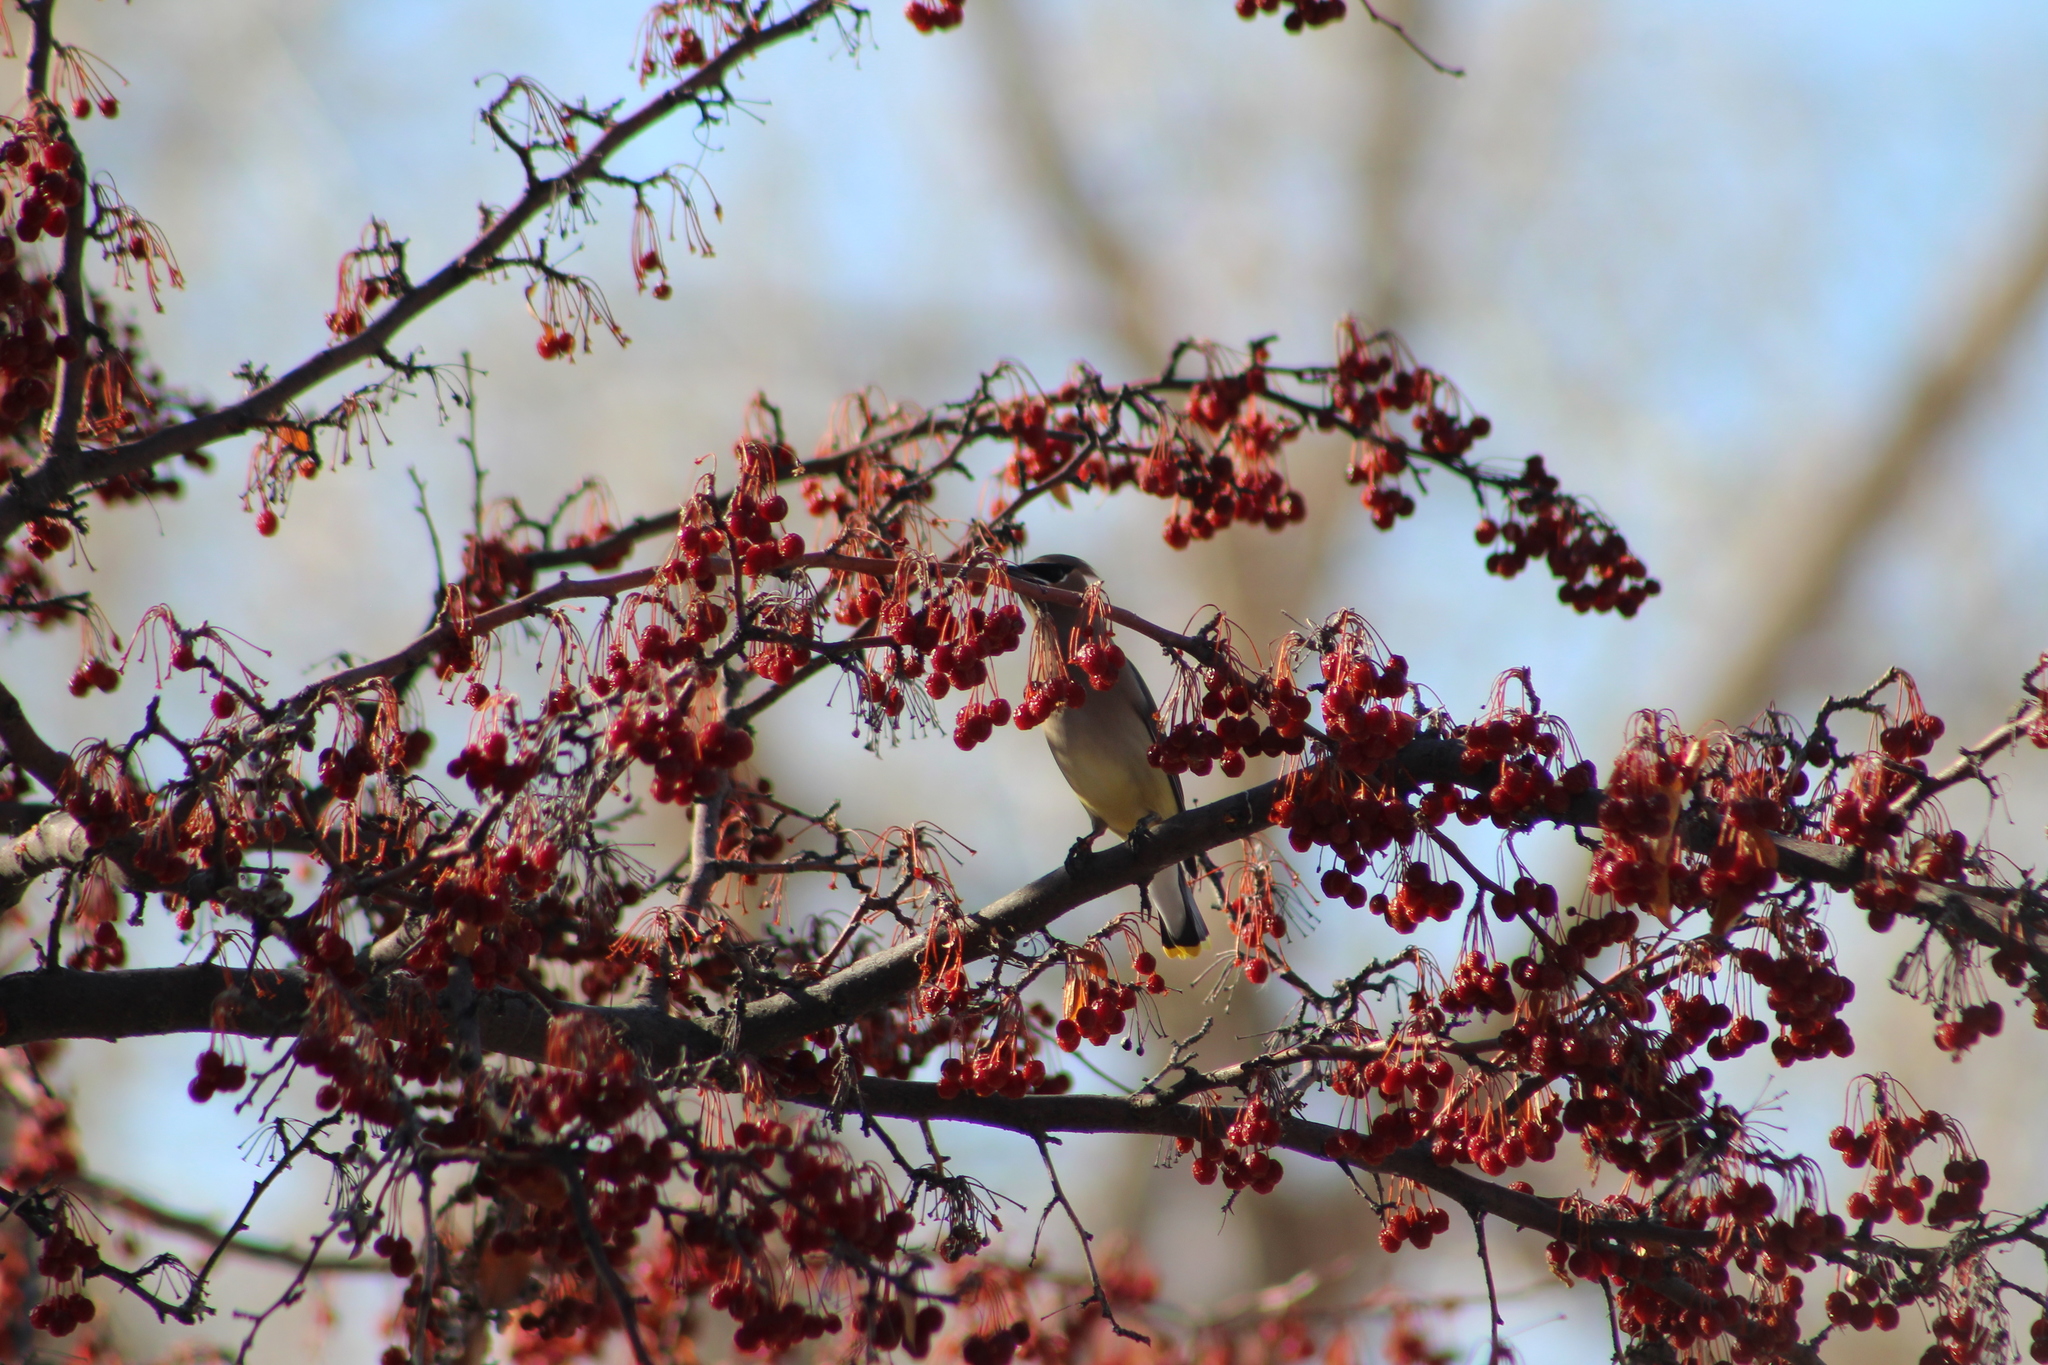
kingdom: Animalia
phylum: Chordata
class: Aves
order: Passeriformes
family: Bombycillidae
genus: Bombycilla
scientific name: Bombycilla cedrorum
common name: Cedar waxwing
